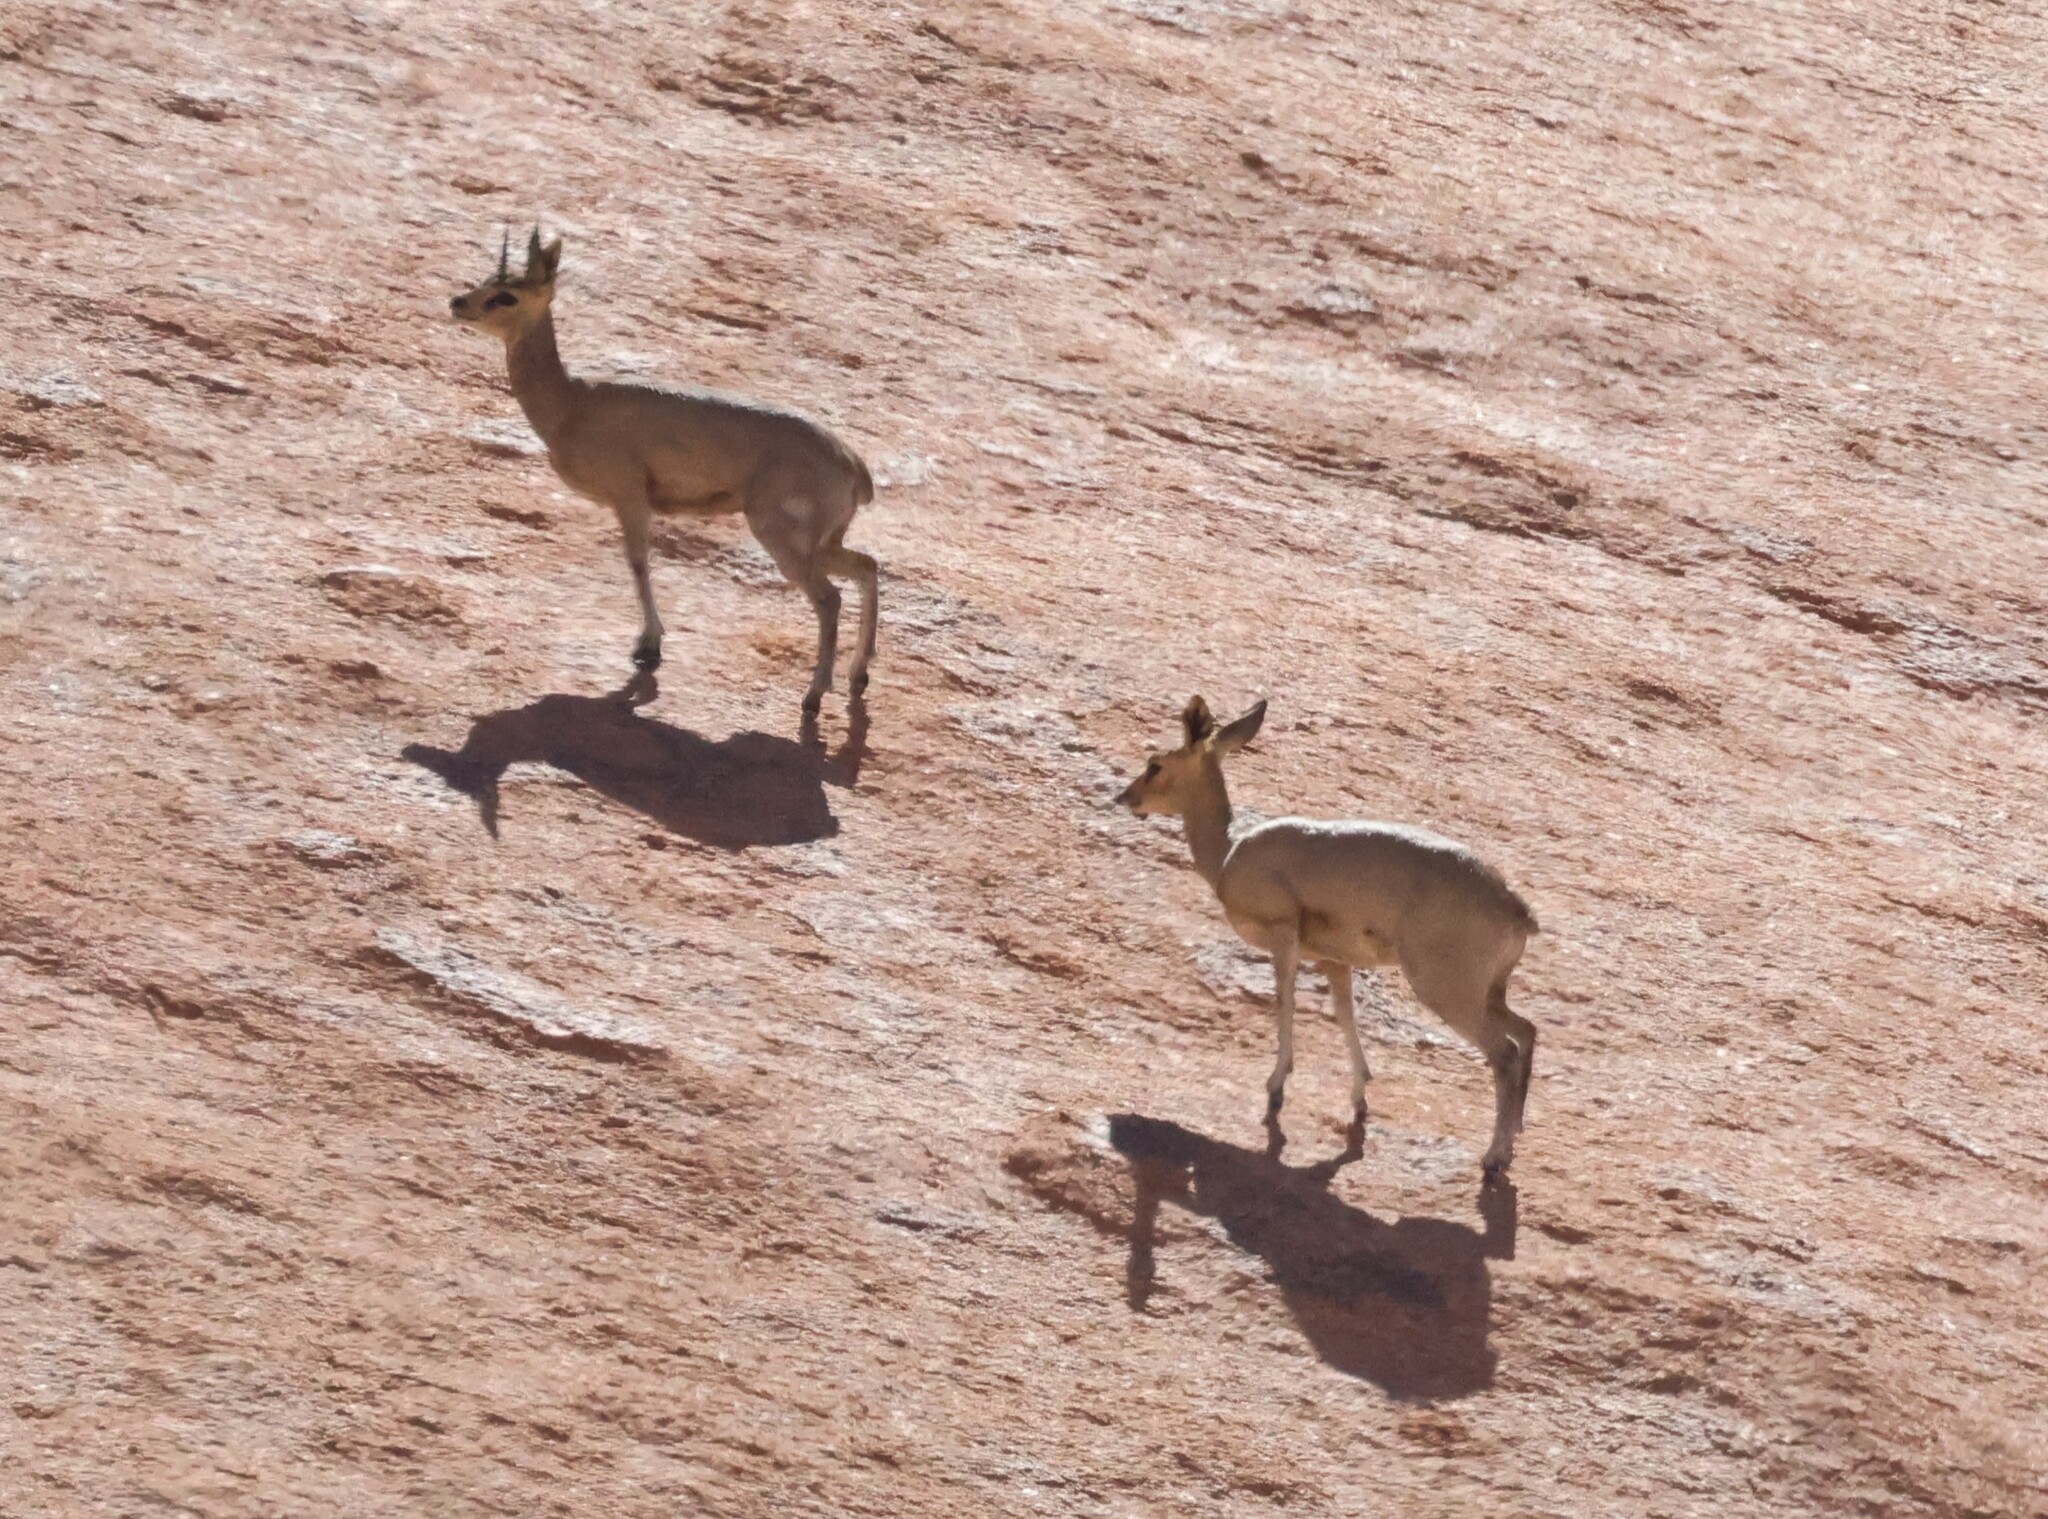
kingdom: Animalia
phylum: Chordata
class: Mammalia
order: Artiodactyla
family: Bovidae
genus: Oreotragus
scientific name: Oreotragus oreotragus
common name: Klipspringer
